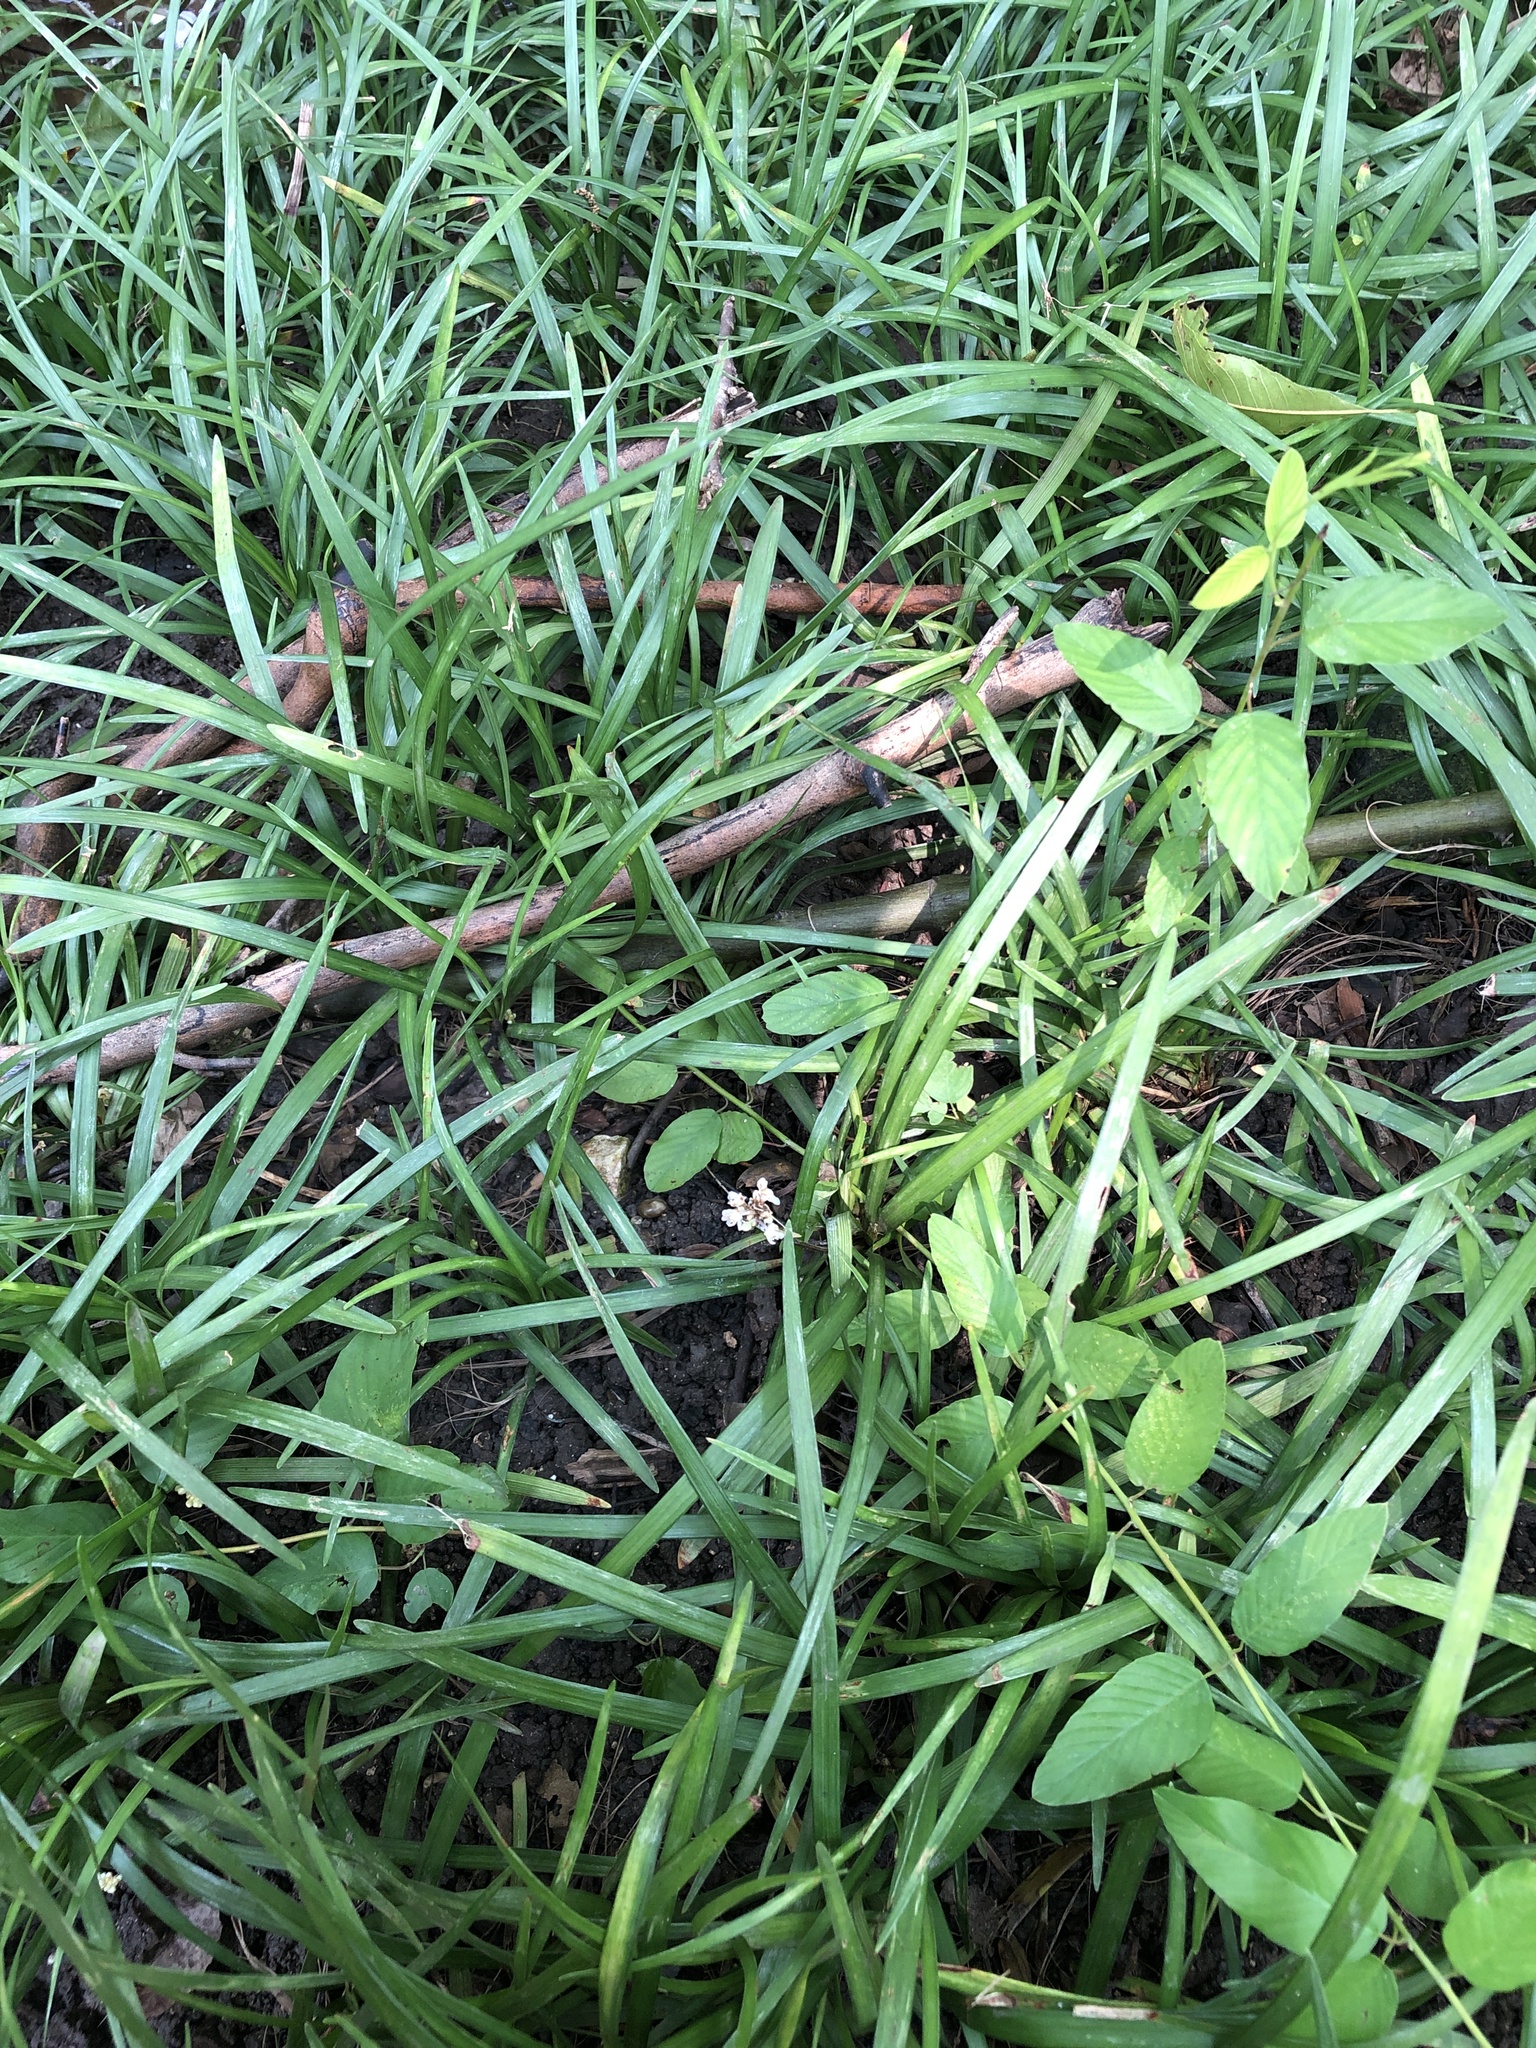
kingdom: Plantae
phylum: Tracheophyta
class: Liliopsida
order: Asparagales
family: Asparagaceae
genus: Liriope
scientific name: Liriope muscari
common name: Big blue lilyturf
